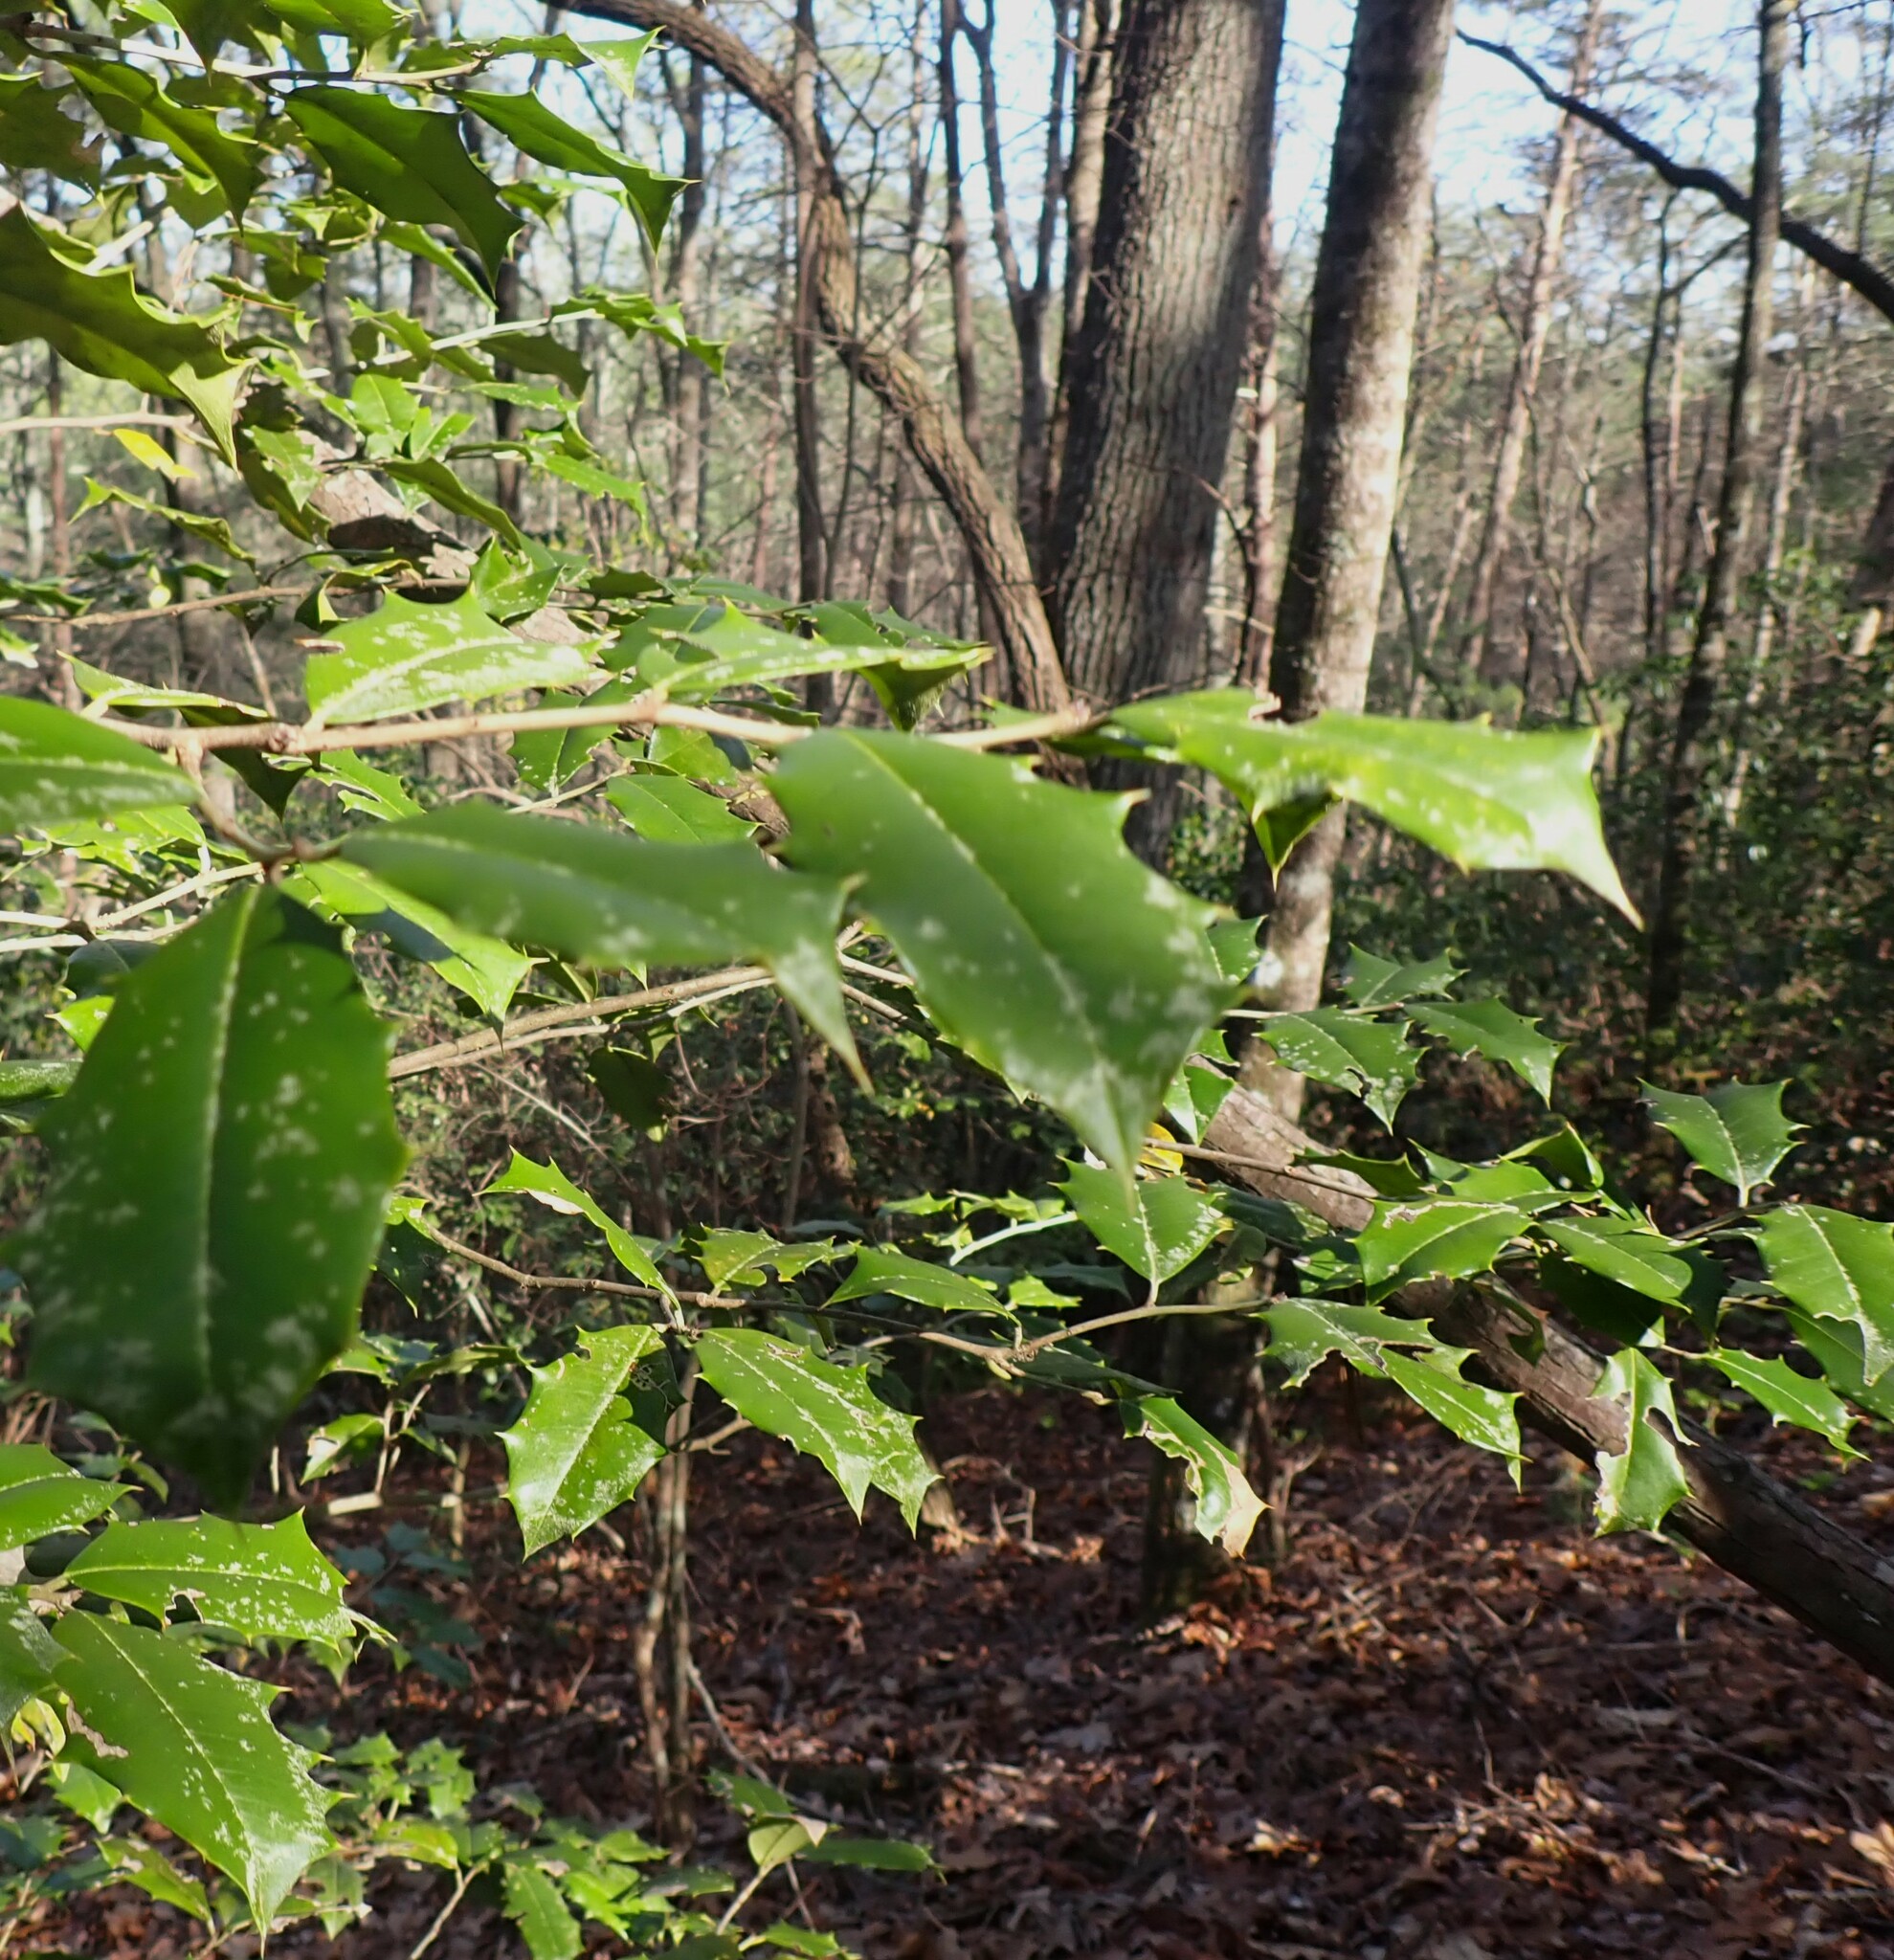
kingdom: Plantae
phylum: Tracheophyta
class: Magnoliopsida
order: Aquifoliales
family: Aquifoliaceae
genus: Ilex
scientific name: Ilex opaca
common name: American holly
